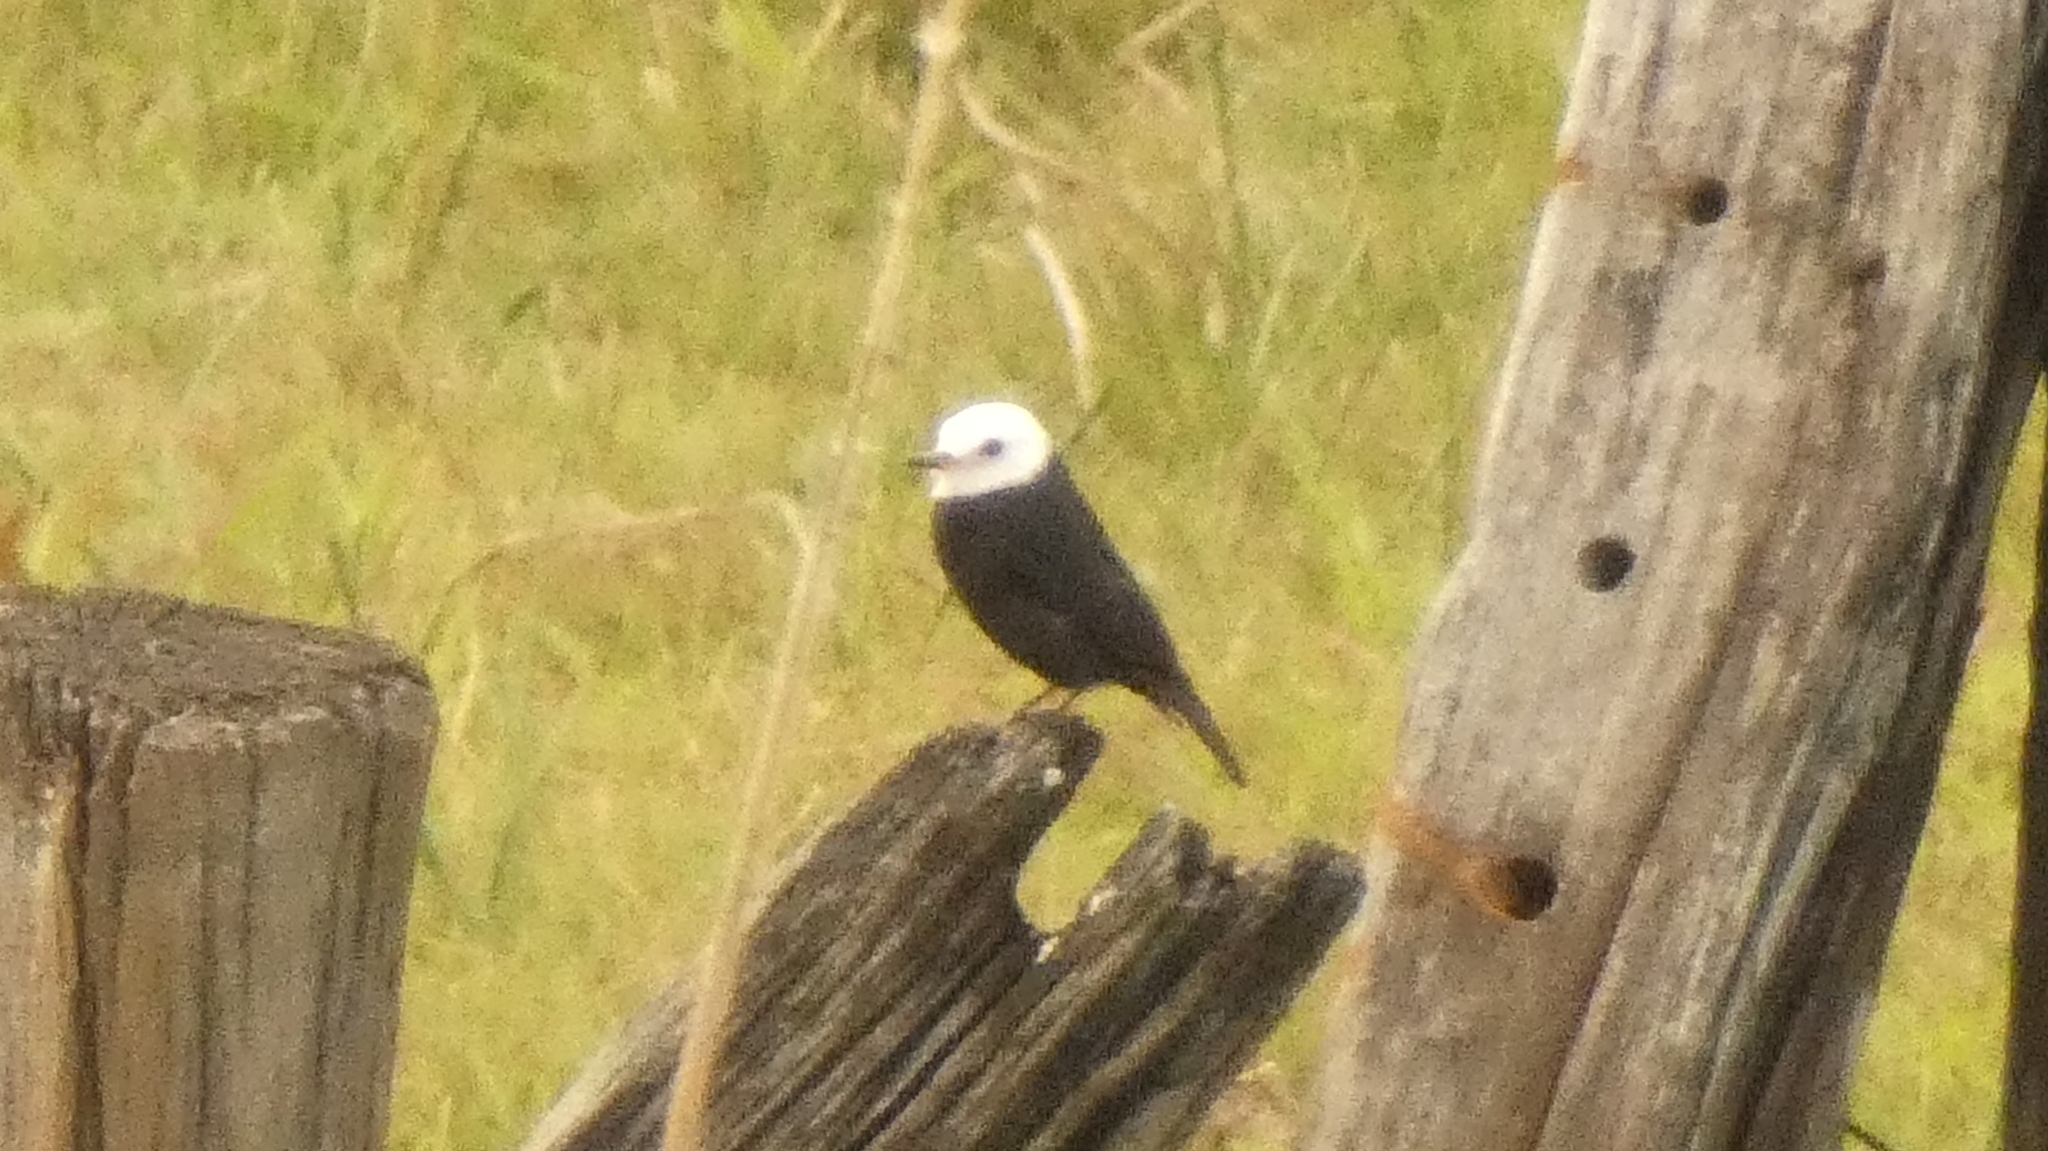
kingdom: Animalia
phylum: Chordata
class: Aves
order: Passeriformes
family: Tyrannidae
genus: Arundinicola
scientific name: Arundinicola leucocephala
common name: White-headed marsh tyrant
